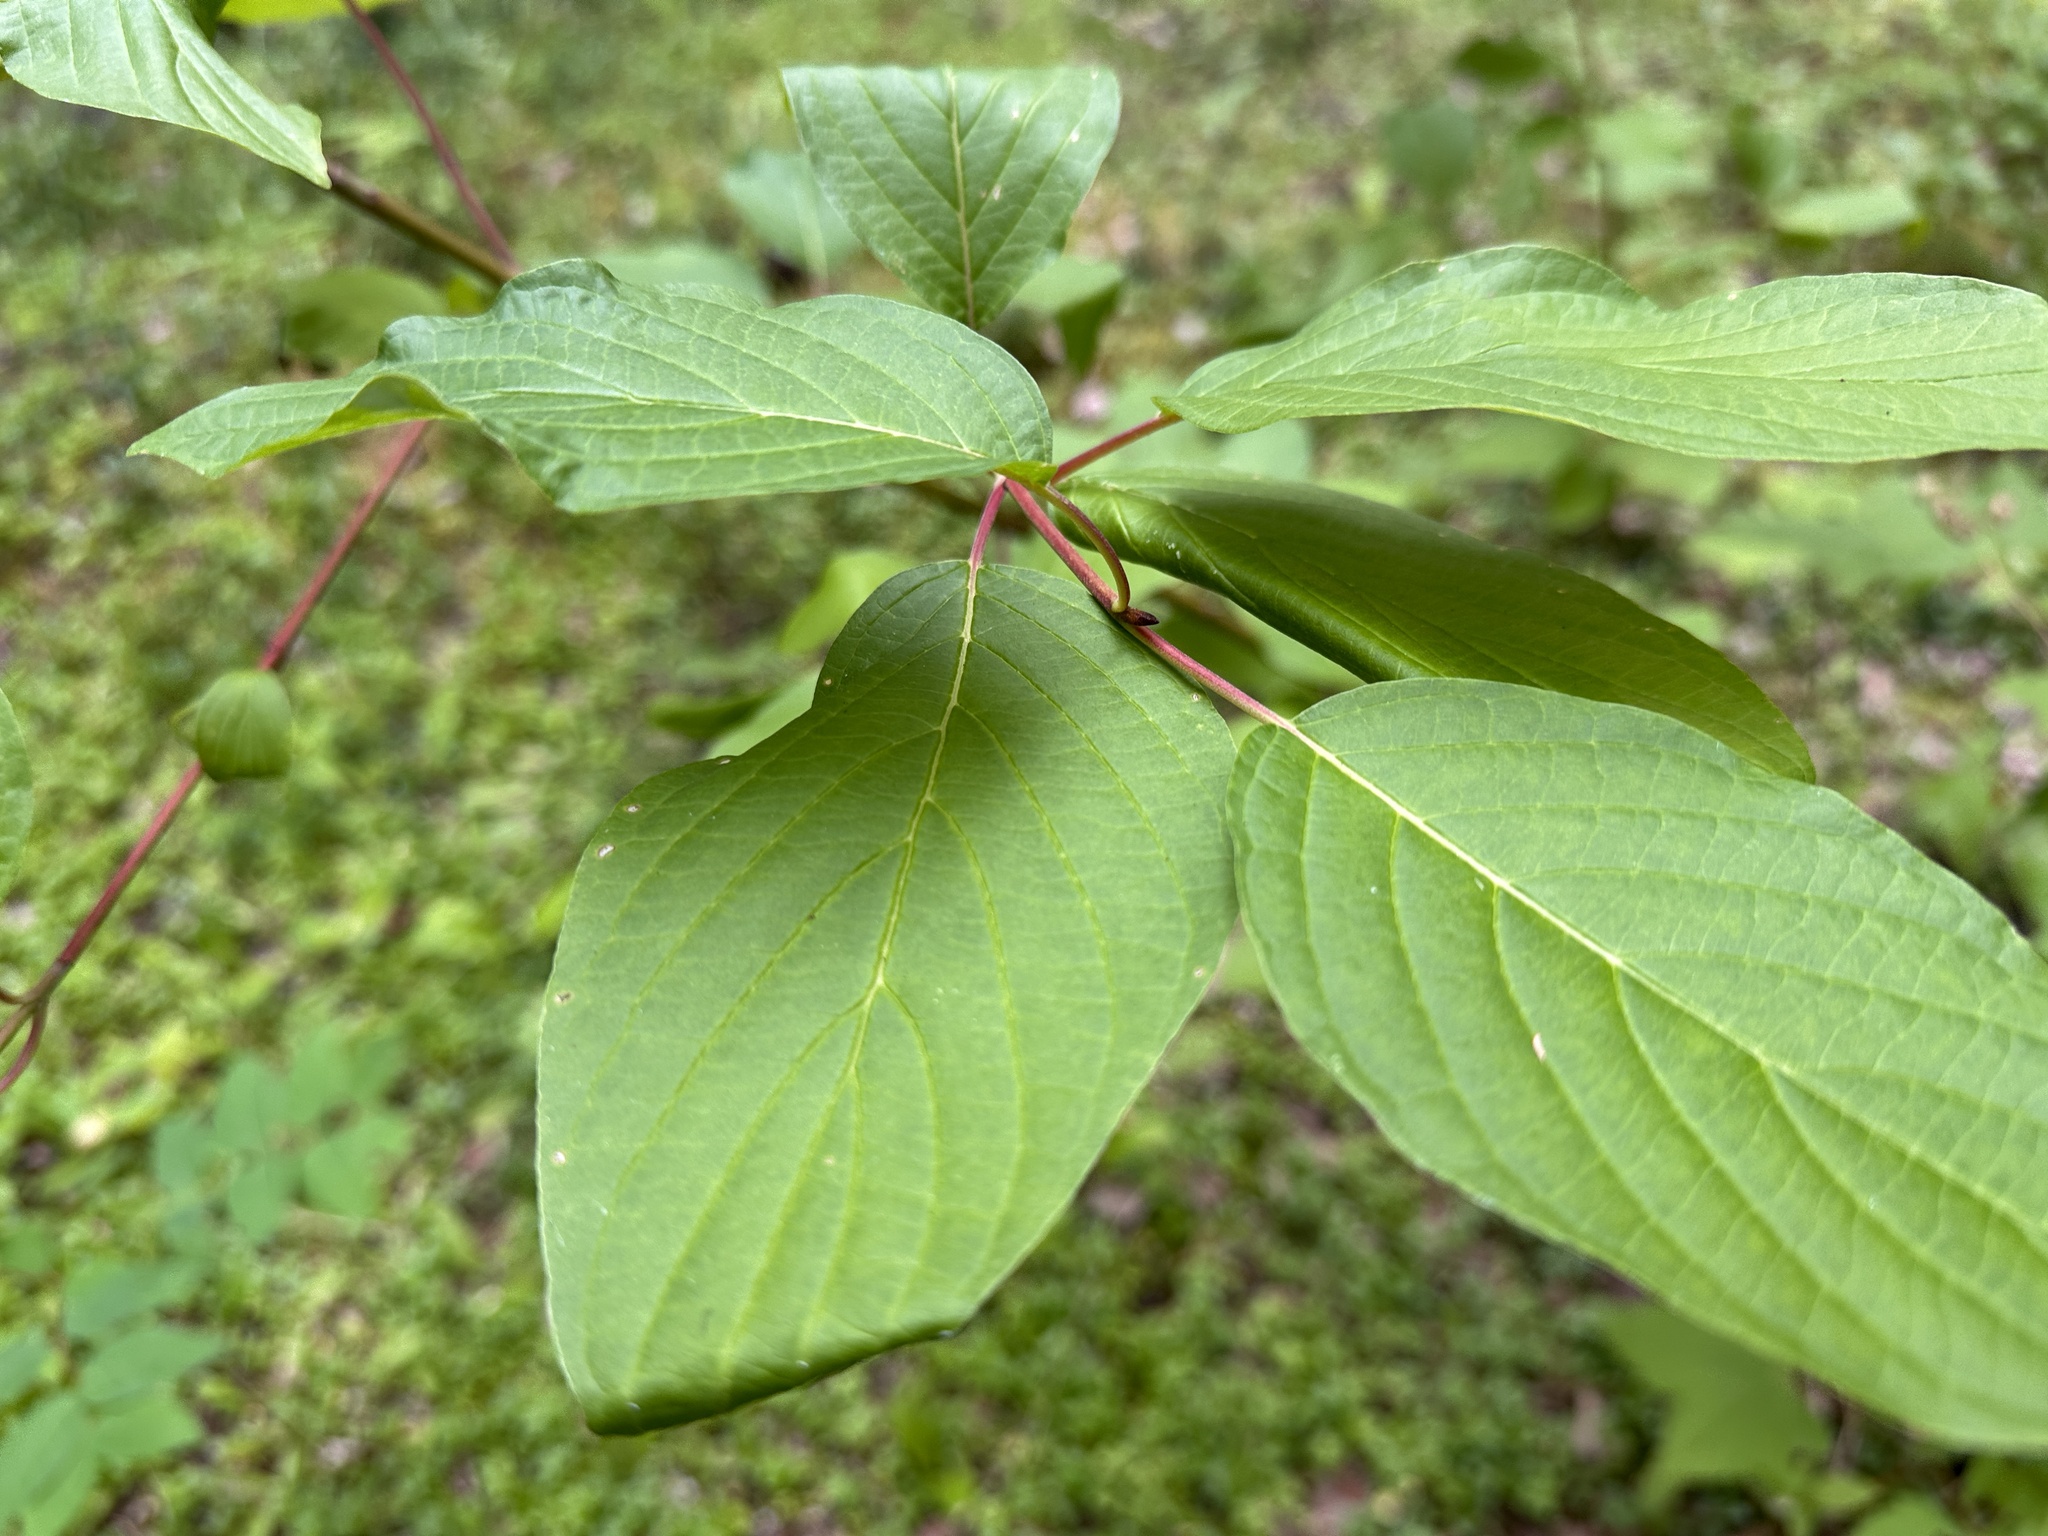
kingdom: Plantae
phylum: Tracheophyta
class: Magnoliopsida
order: Cornales
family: Cornaceae
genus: Cornus
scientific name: Cornus sericea
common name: Red-osier dogwood
